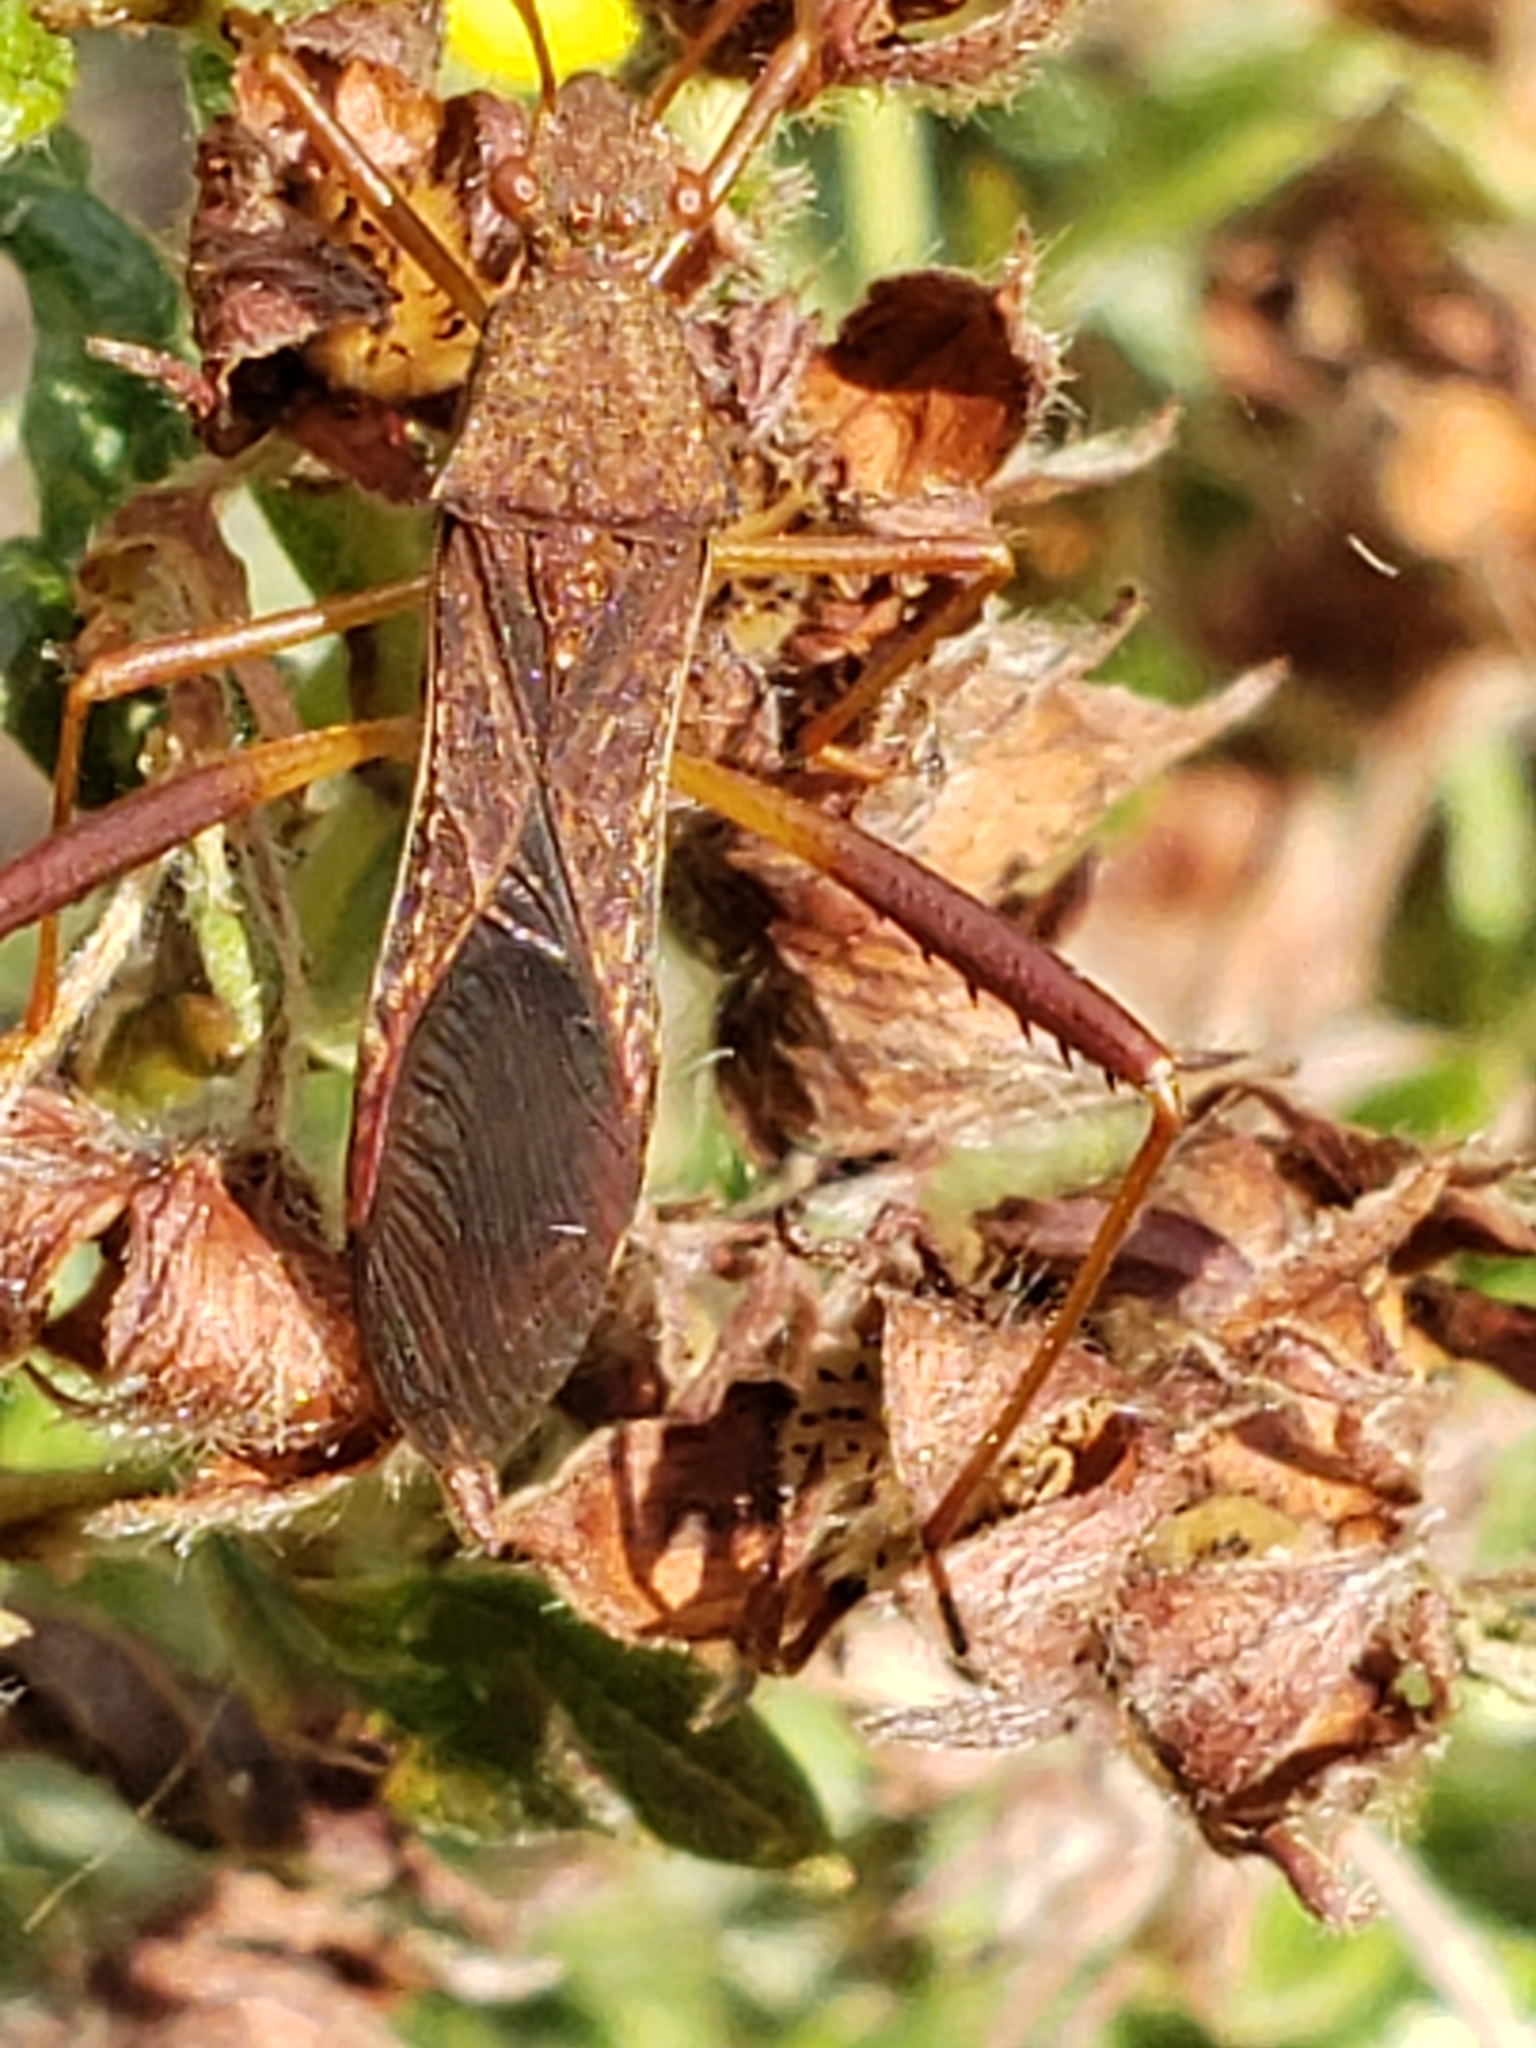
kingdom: Animalia
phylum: Arthropoda
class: Insecta
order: Hemiptera
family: Alydidae
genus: Megalotomus
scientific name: Megalotomus quinquespinosus
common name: Lupine bug
